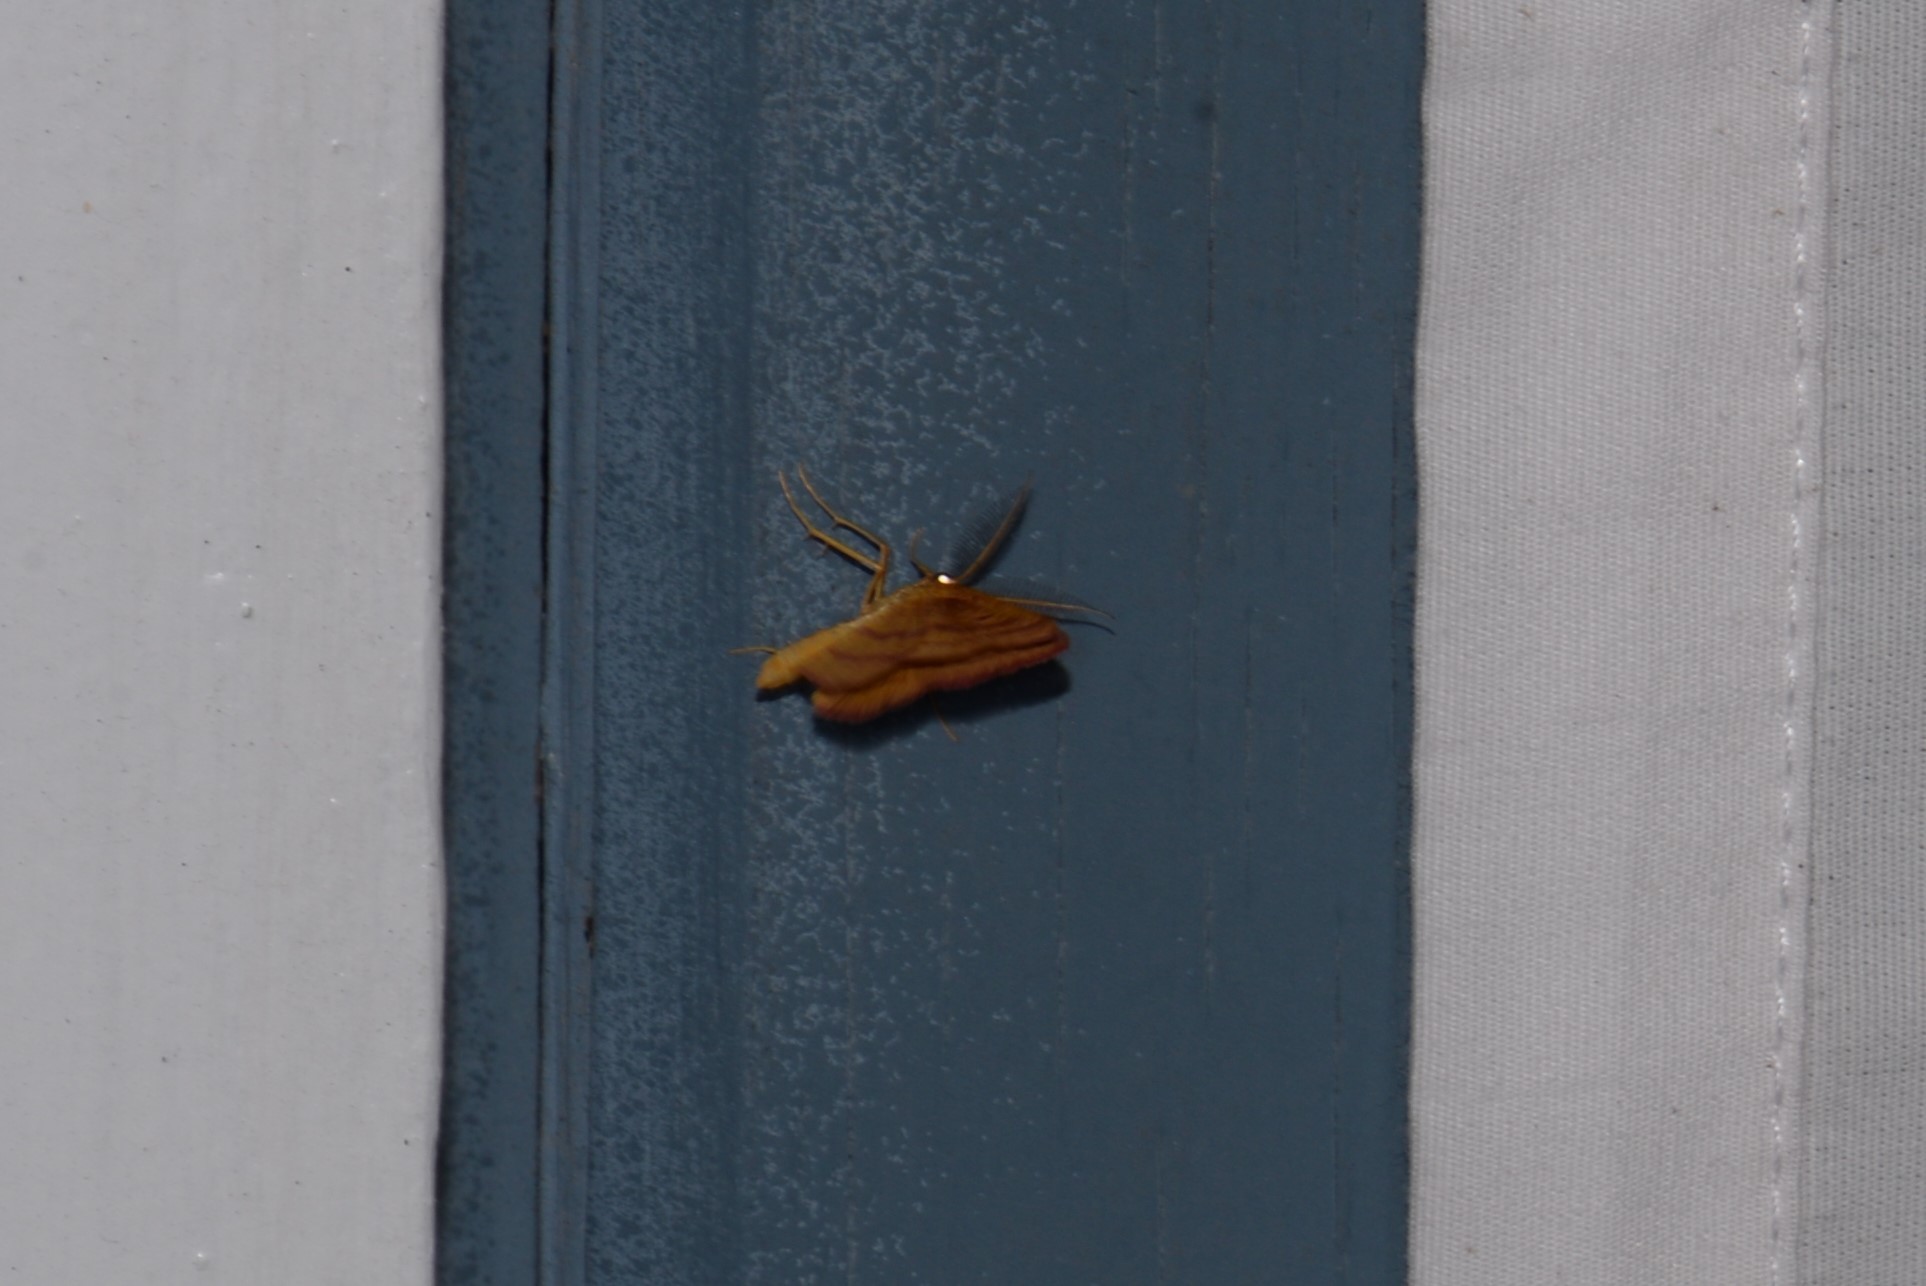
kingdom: Animalia
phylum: Arthropoda
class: Insecta
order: Lepidoptera
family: Geometridae
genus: Haematopis
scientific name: Haematopis grataria
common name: Chickweed geometer
